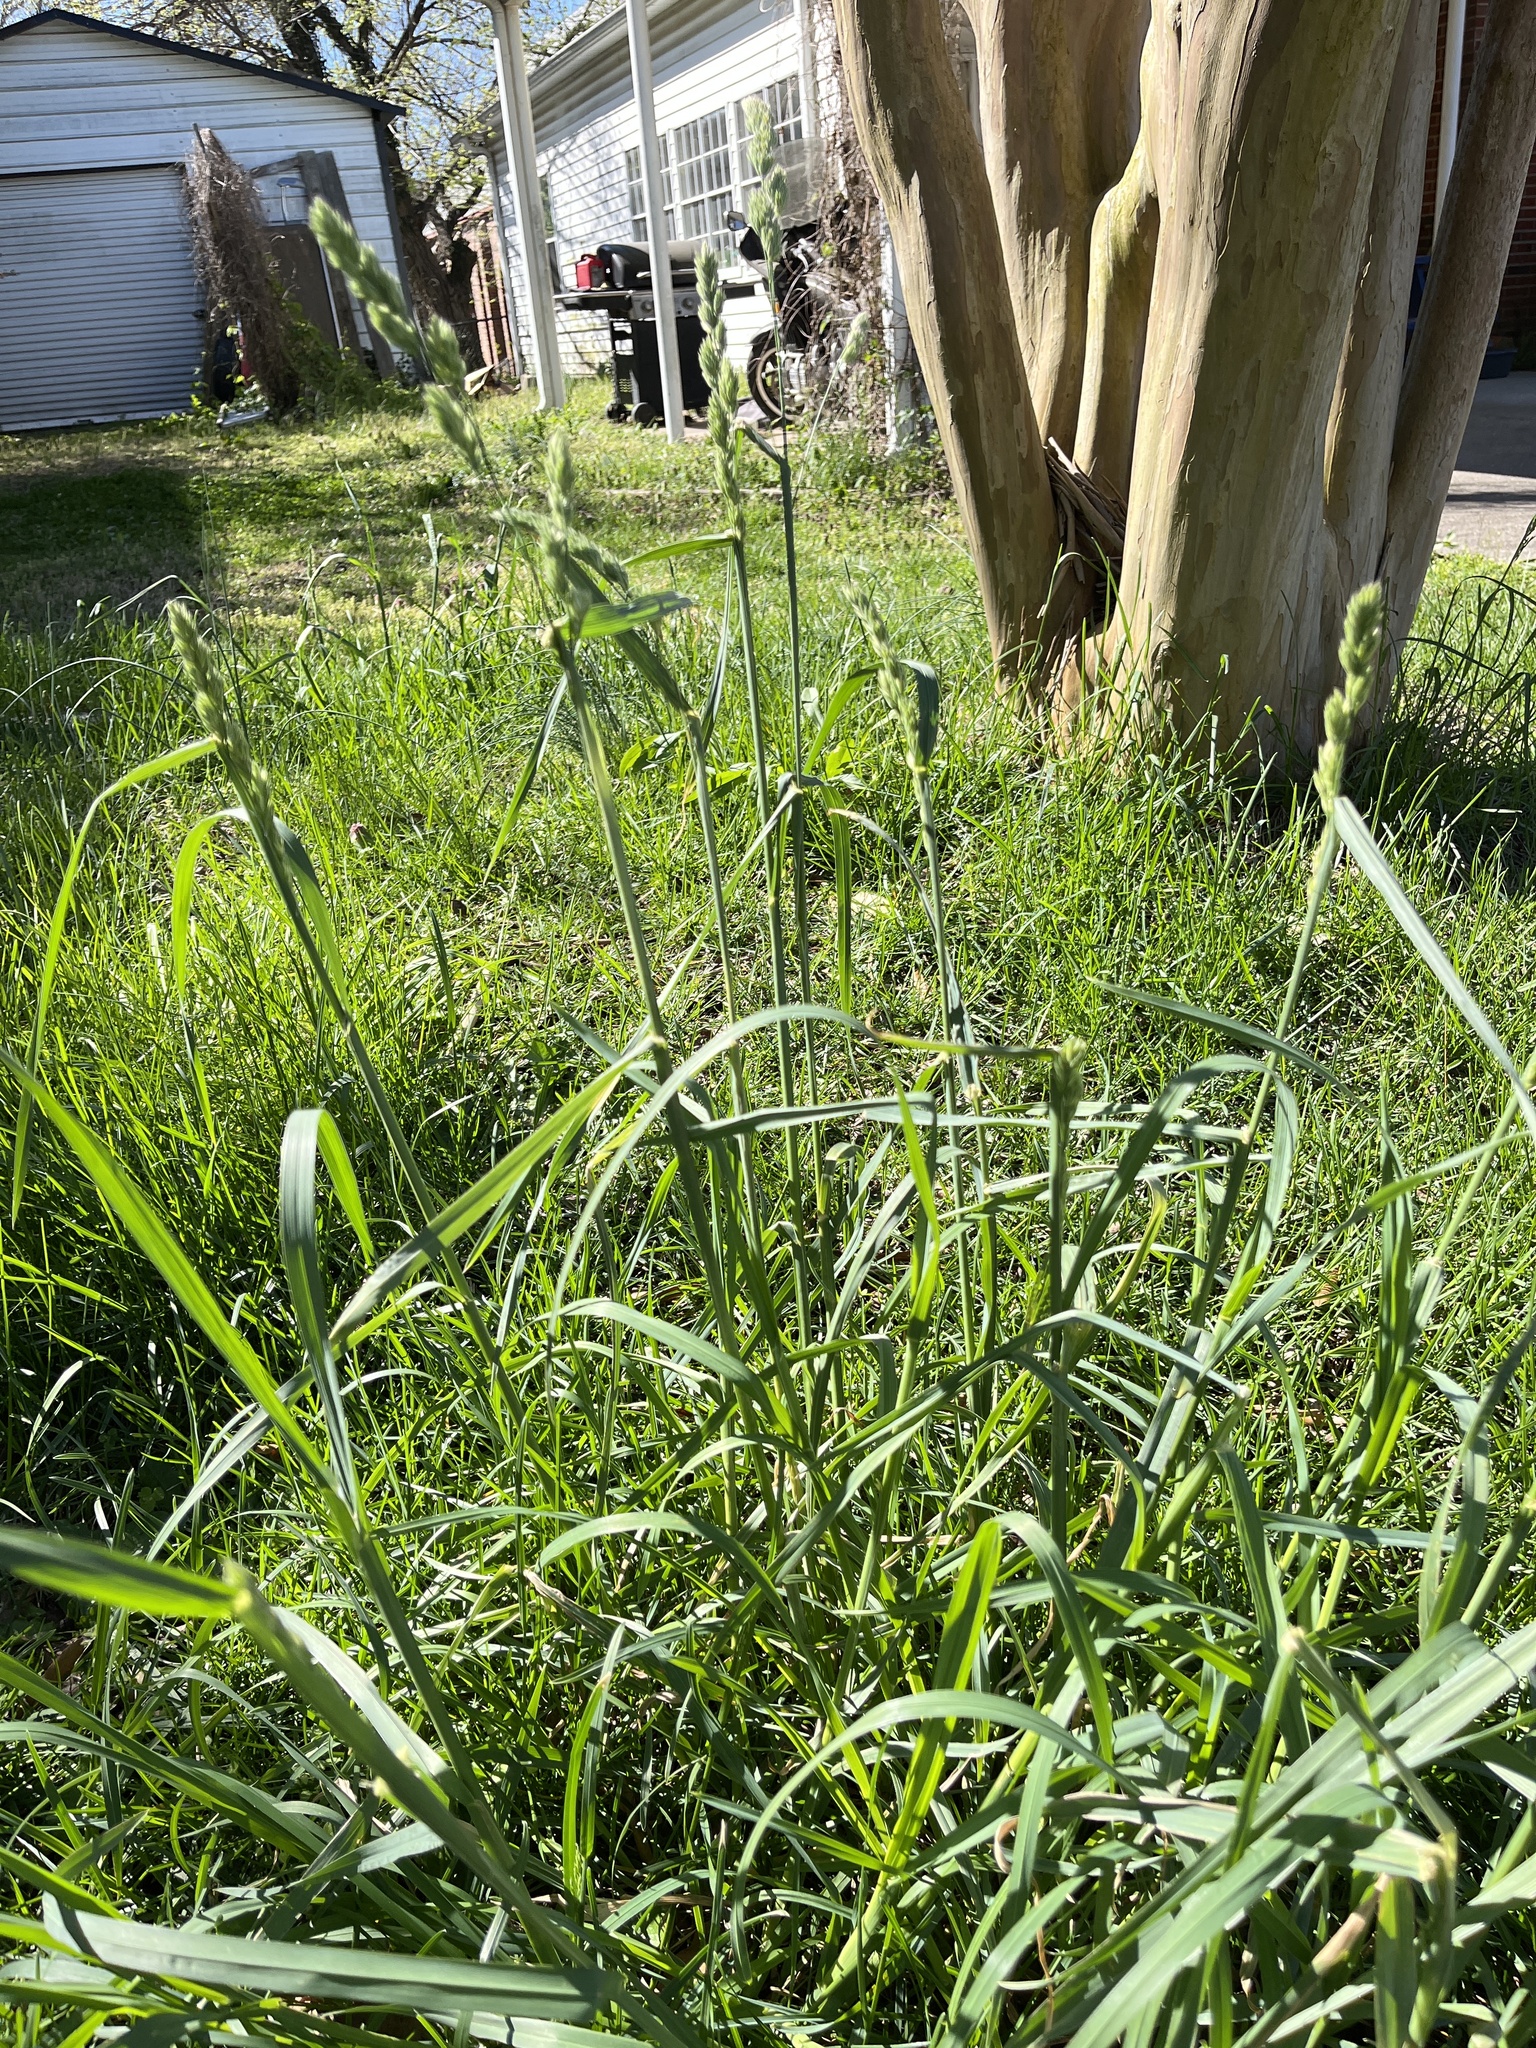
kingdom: Plantae
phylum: Tracheophyta
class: Liliopsida
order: Poales
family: Poaceae
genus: Dactylis
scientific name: Dactylis glomerata
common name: Orchardgrass
